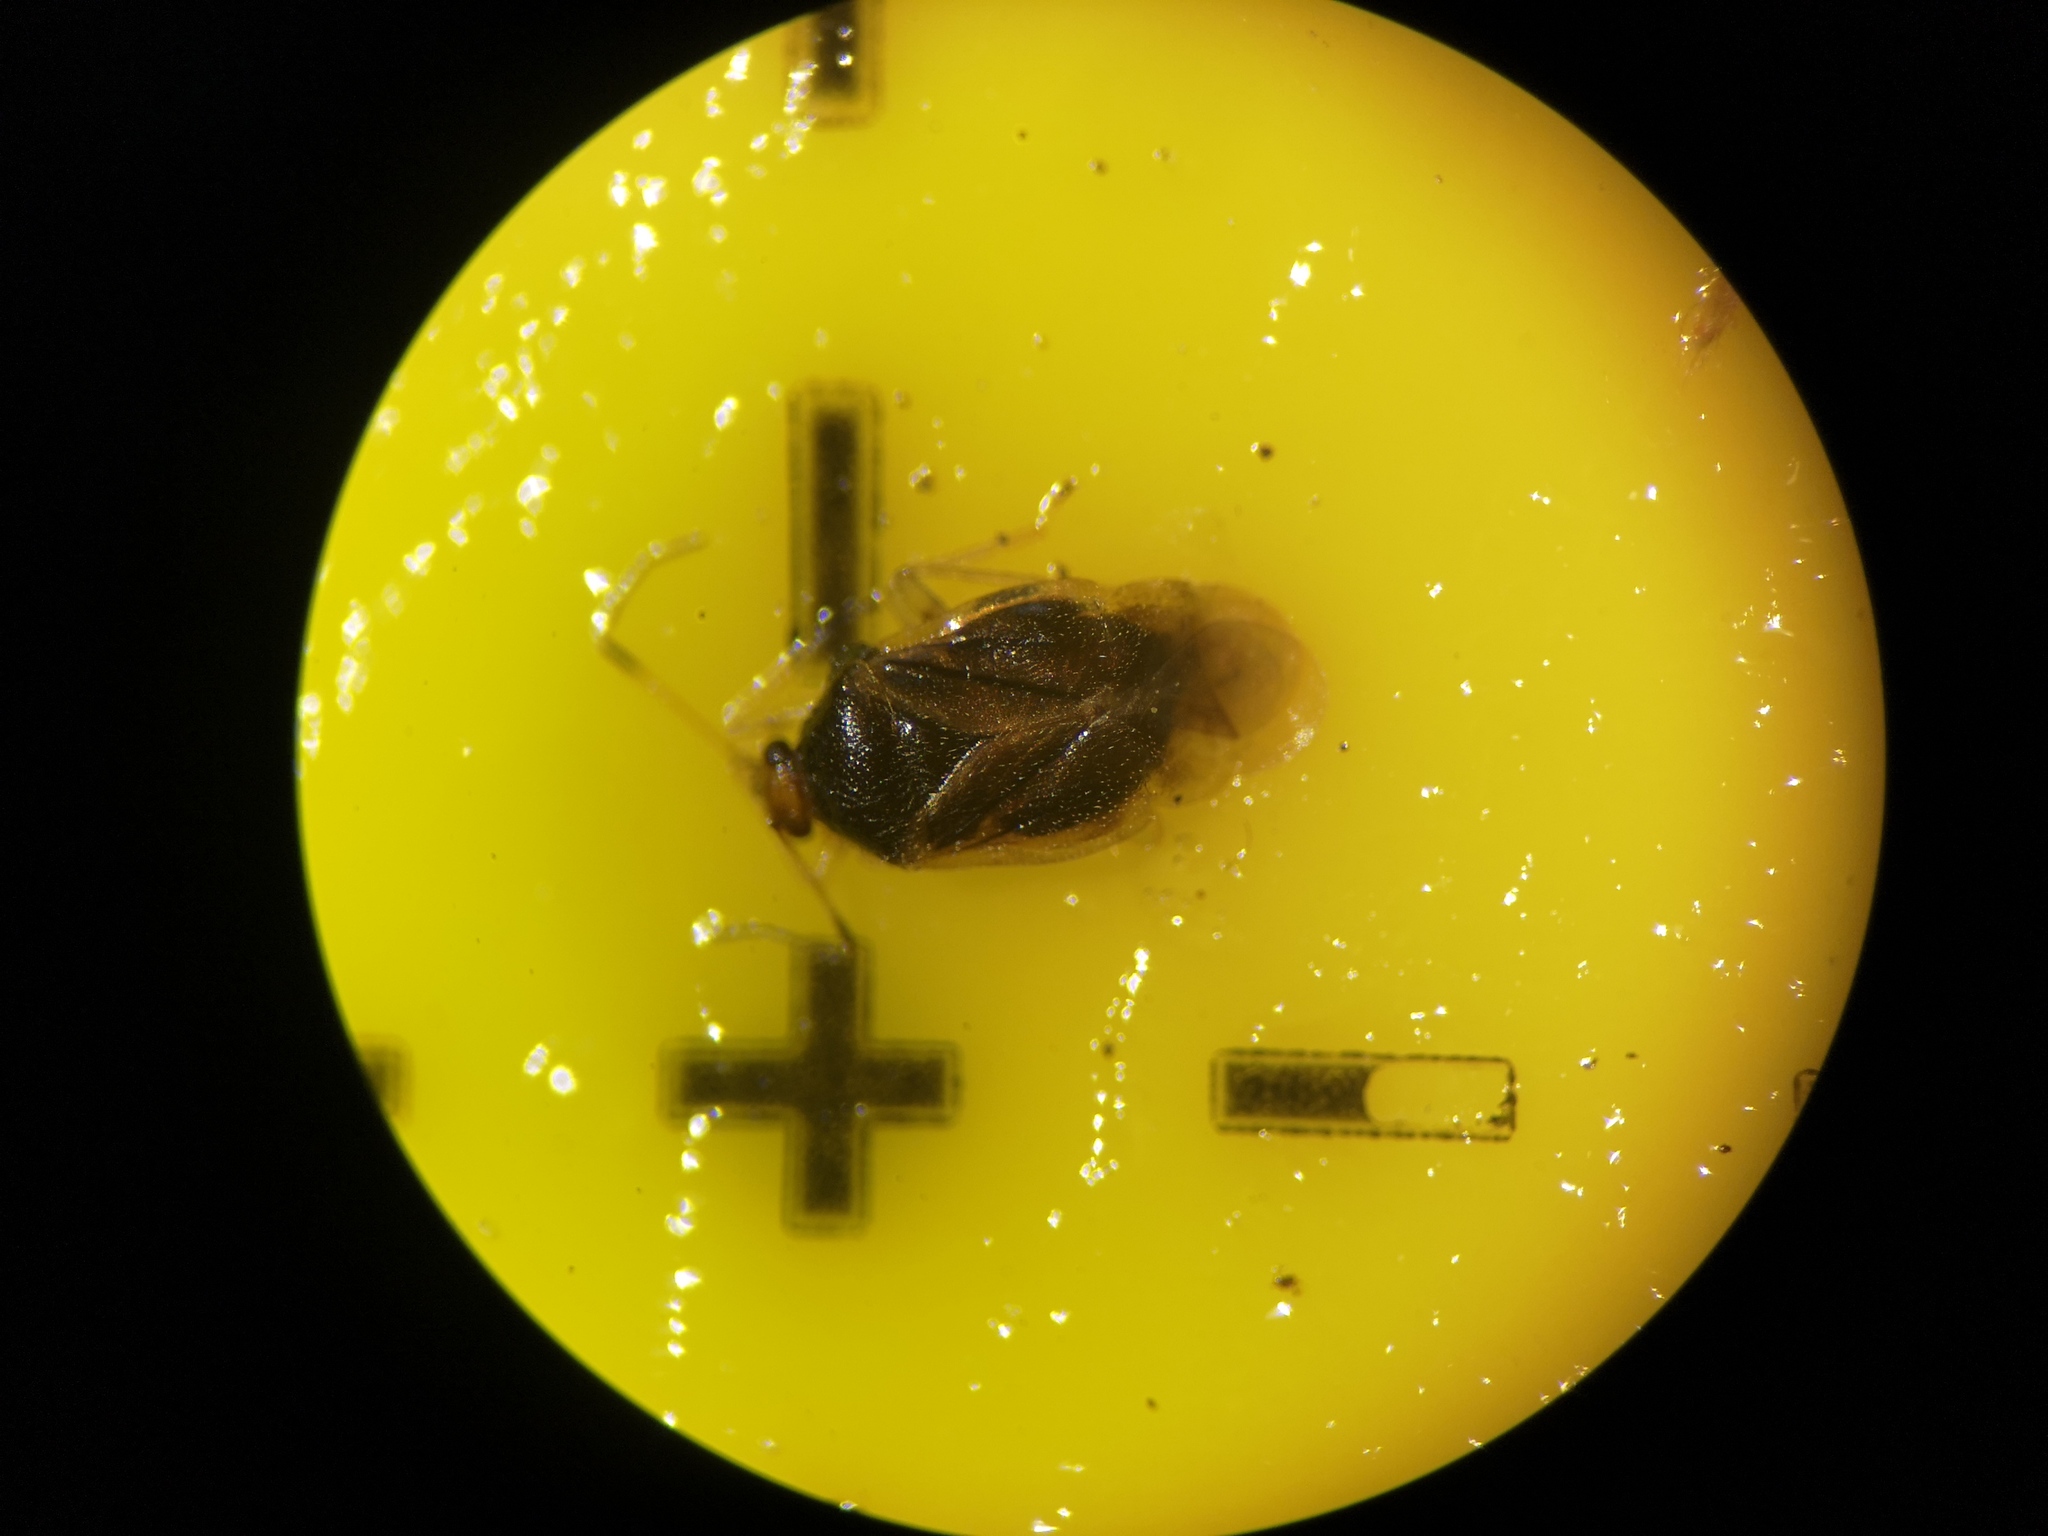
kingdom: Animalia
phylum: Arthropoda
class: Insecta
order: Hemiptera
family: Miridae
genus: Monalocoris
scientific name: Monalocoris filicis
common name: Bracken bug
